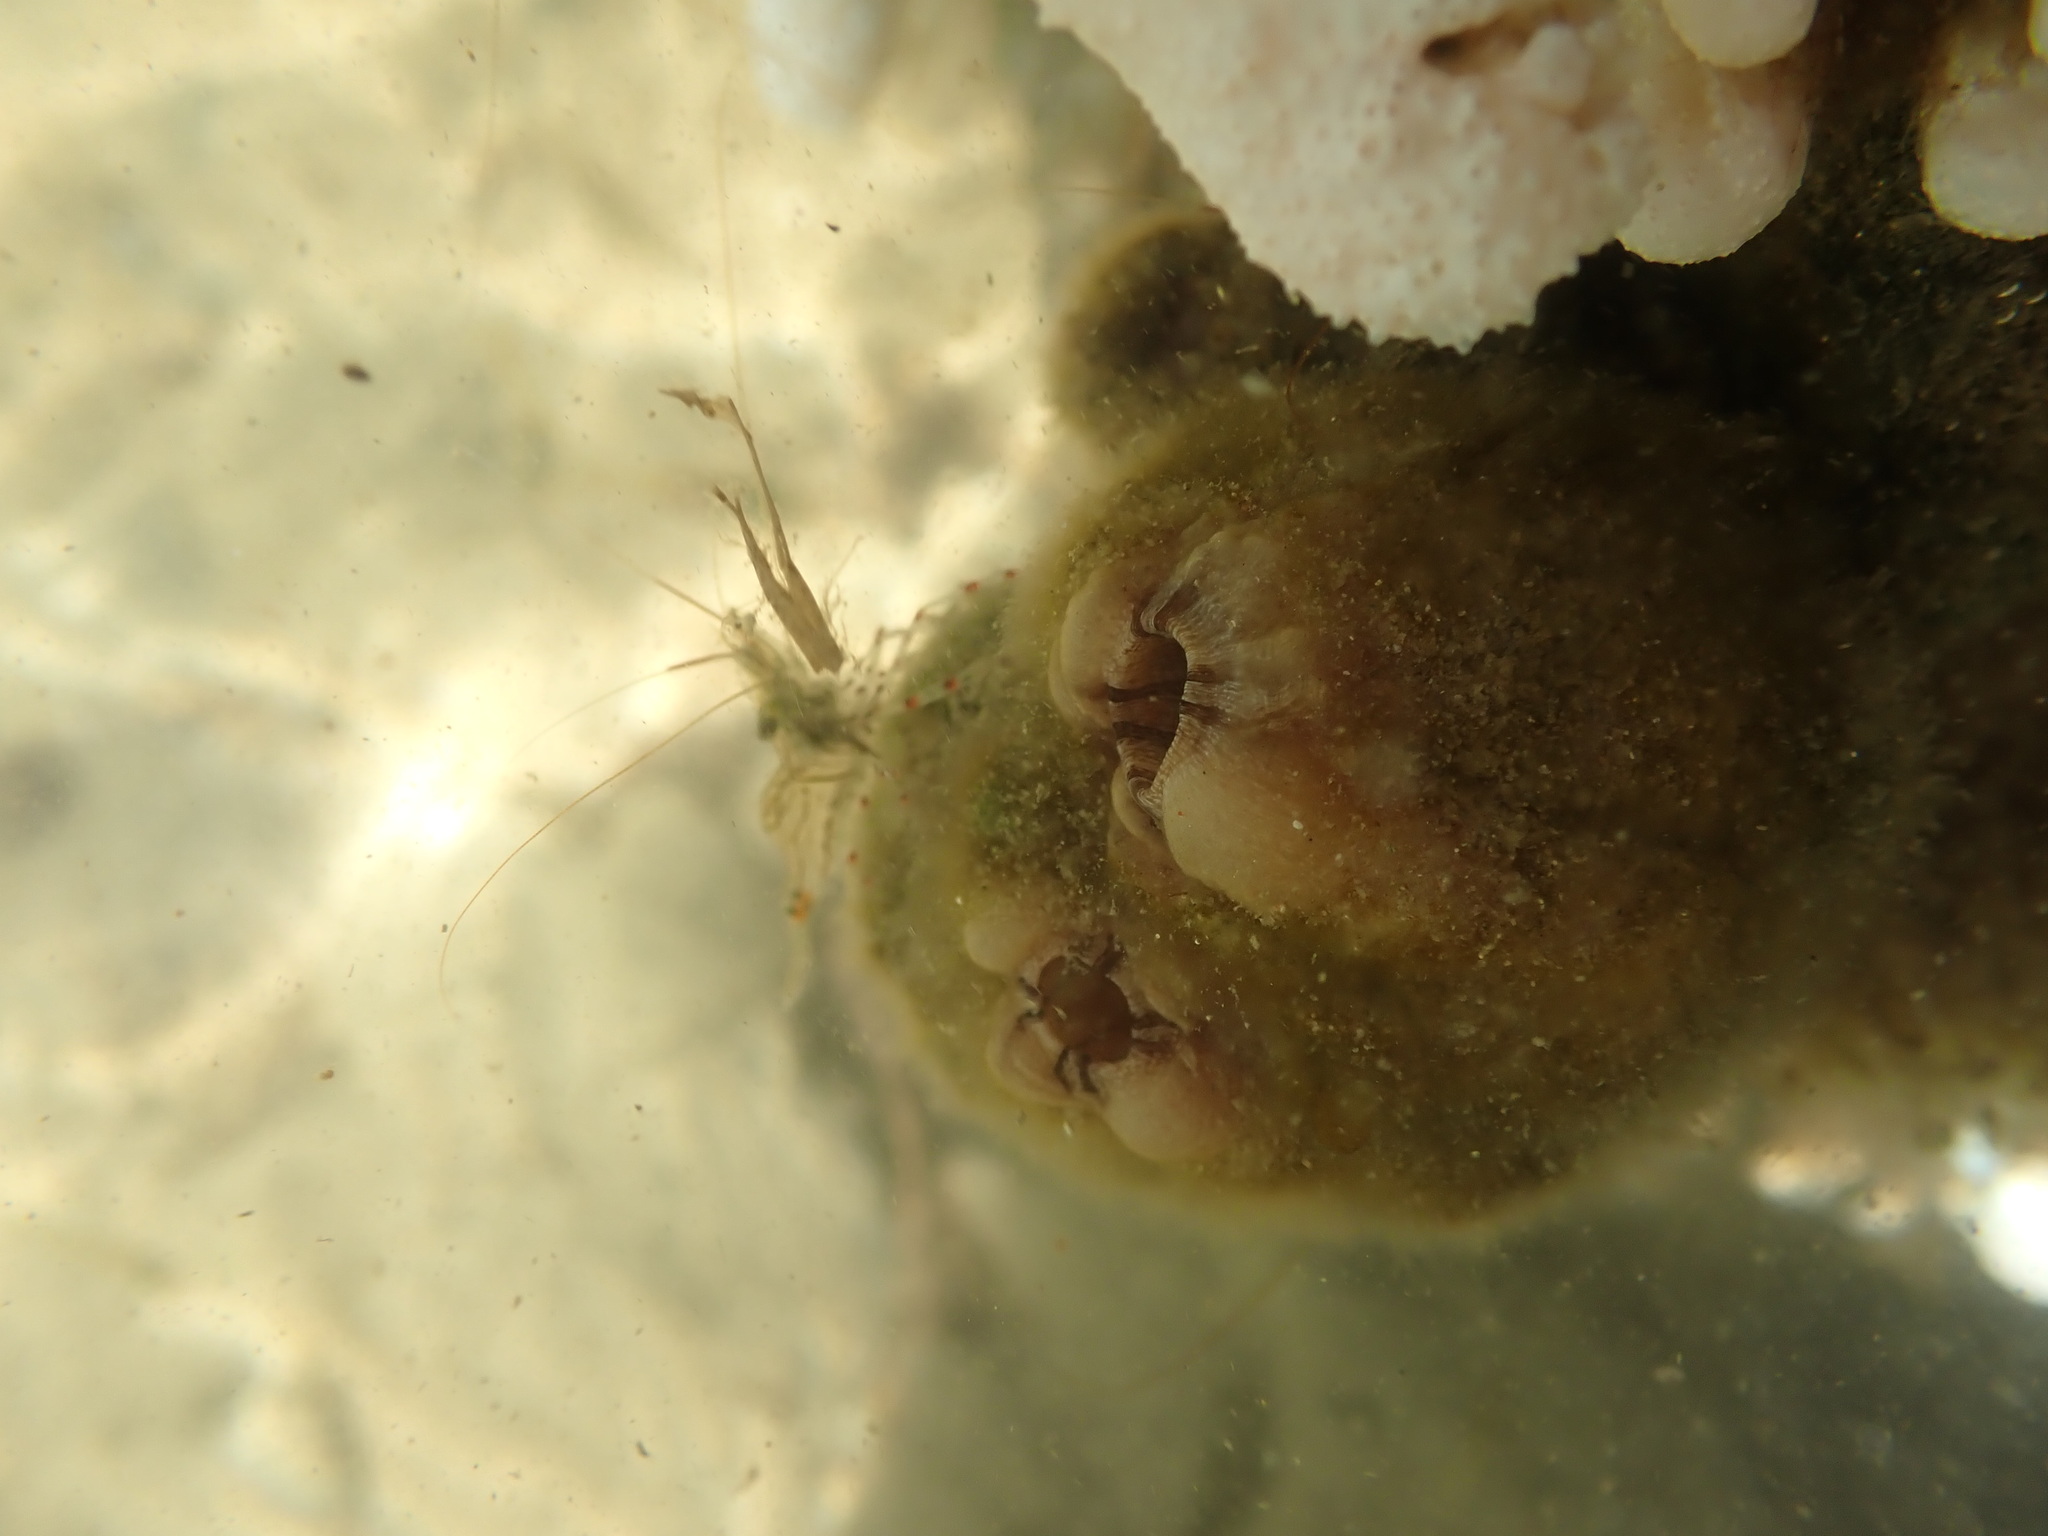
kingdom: Animalia
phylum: Chordata
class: Ascidiacea
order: Stolidobranchia
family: Styelidae
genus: Styela
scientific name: Styela plicata
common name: Pleated tunicate
